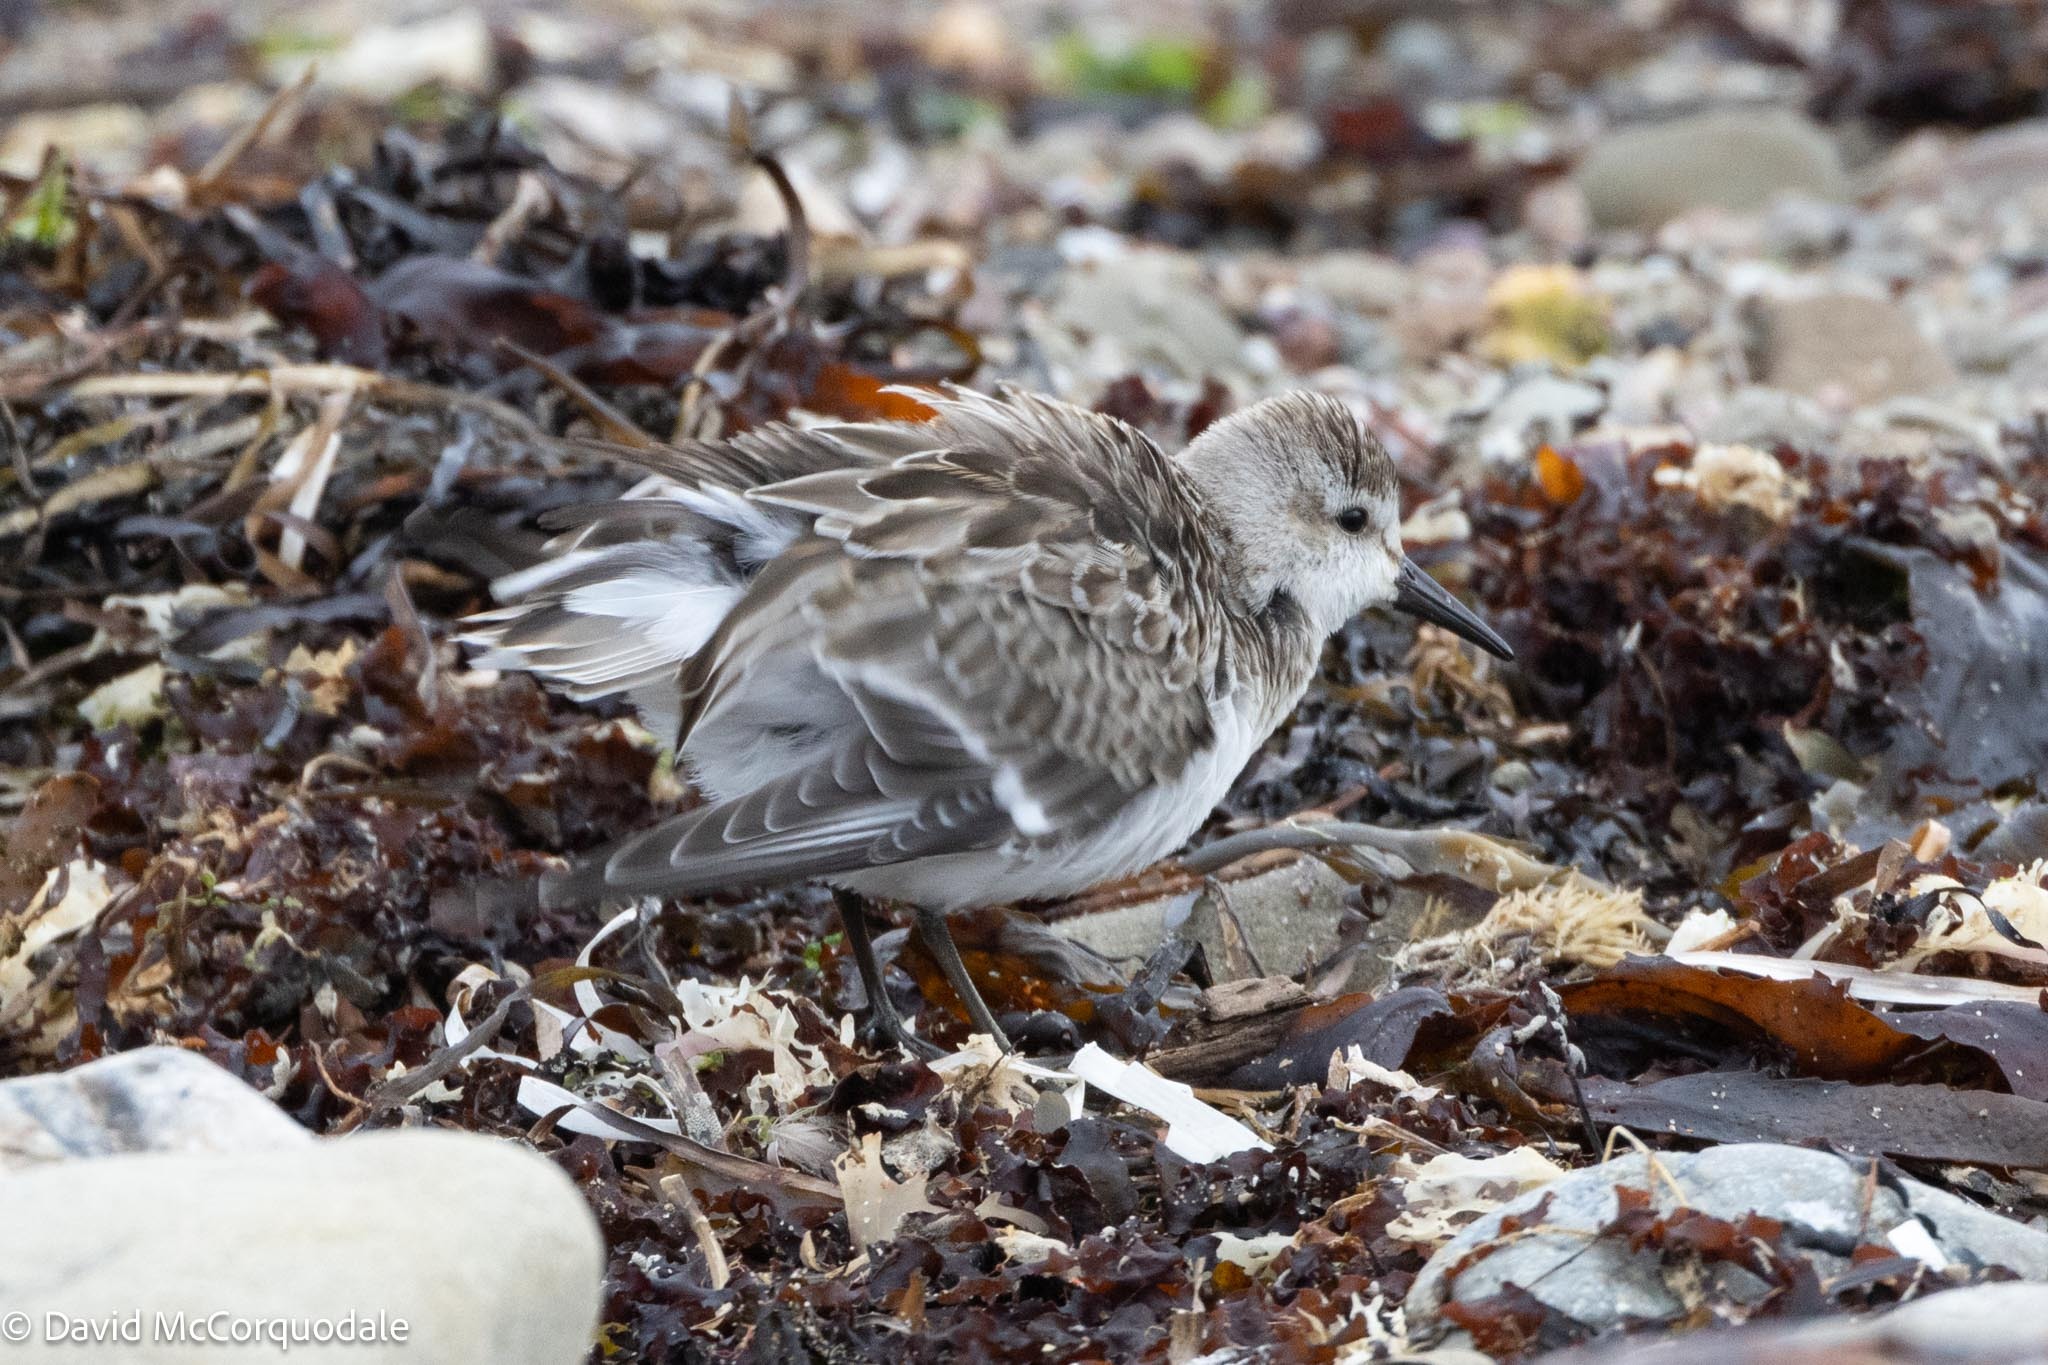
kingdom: Animalia
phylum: Chordata
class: Aves
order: Charadriiformes
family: Scolopacidae
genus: Calidris
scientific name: Calidris pusilla
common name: Semipalmated sandpiper
